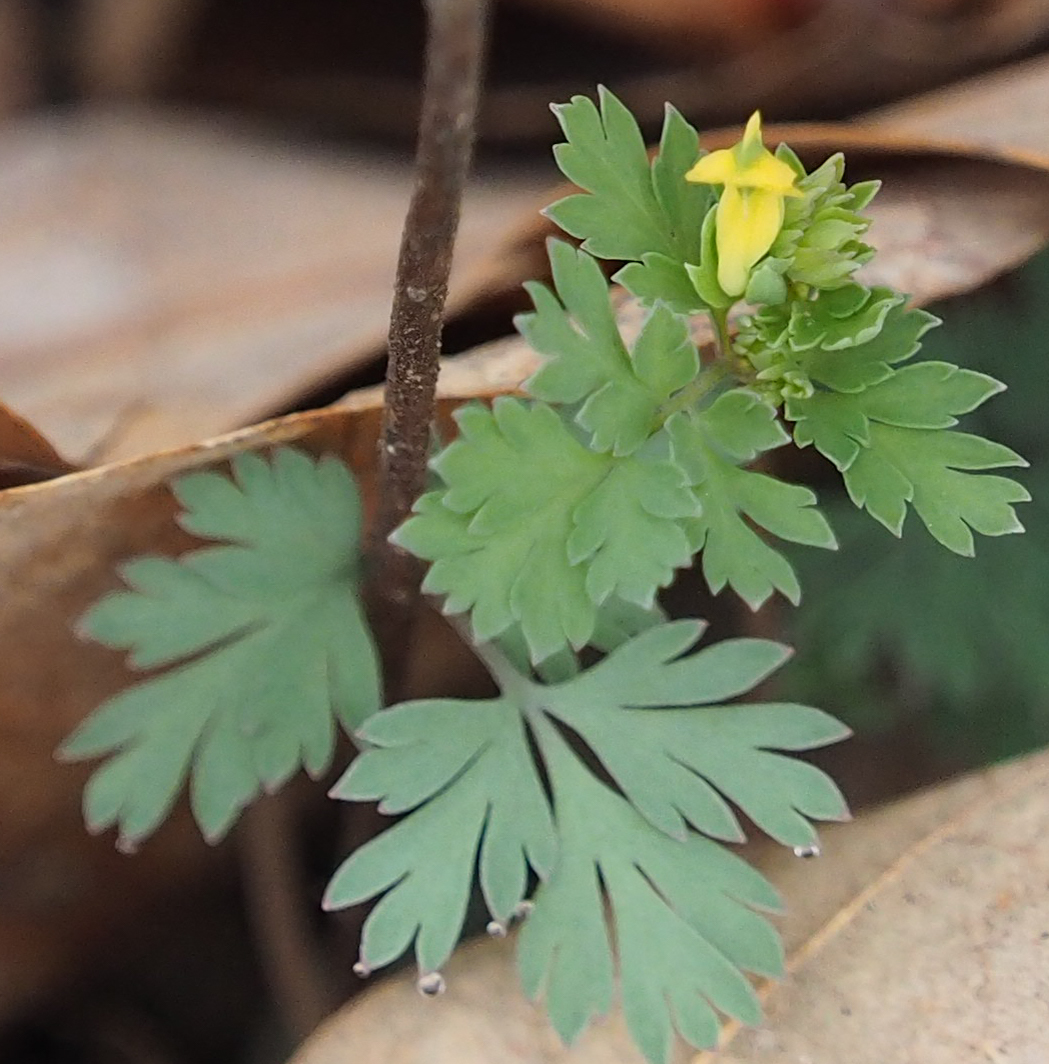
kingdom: Plantae
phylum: Tracheophyta
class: Magnoliopsida
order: Ranunculales
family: Papaveraceae
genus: Corydalis
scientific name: Corydalis flavula
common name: Yellow corydalis
